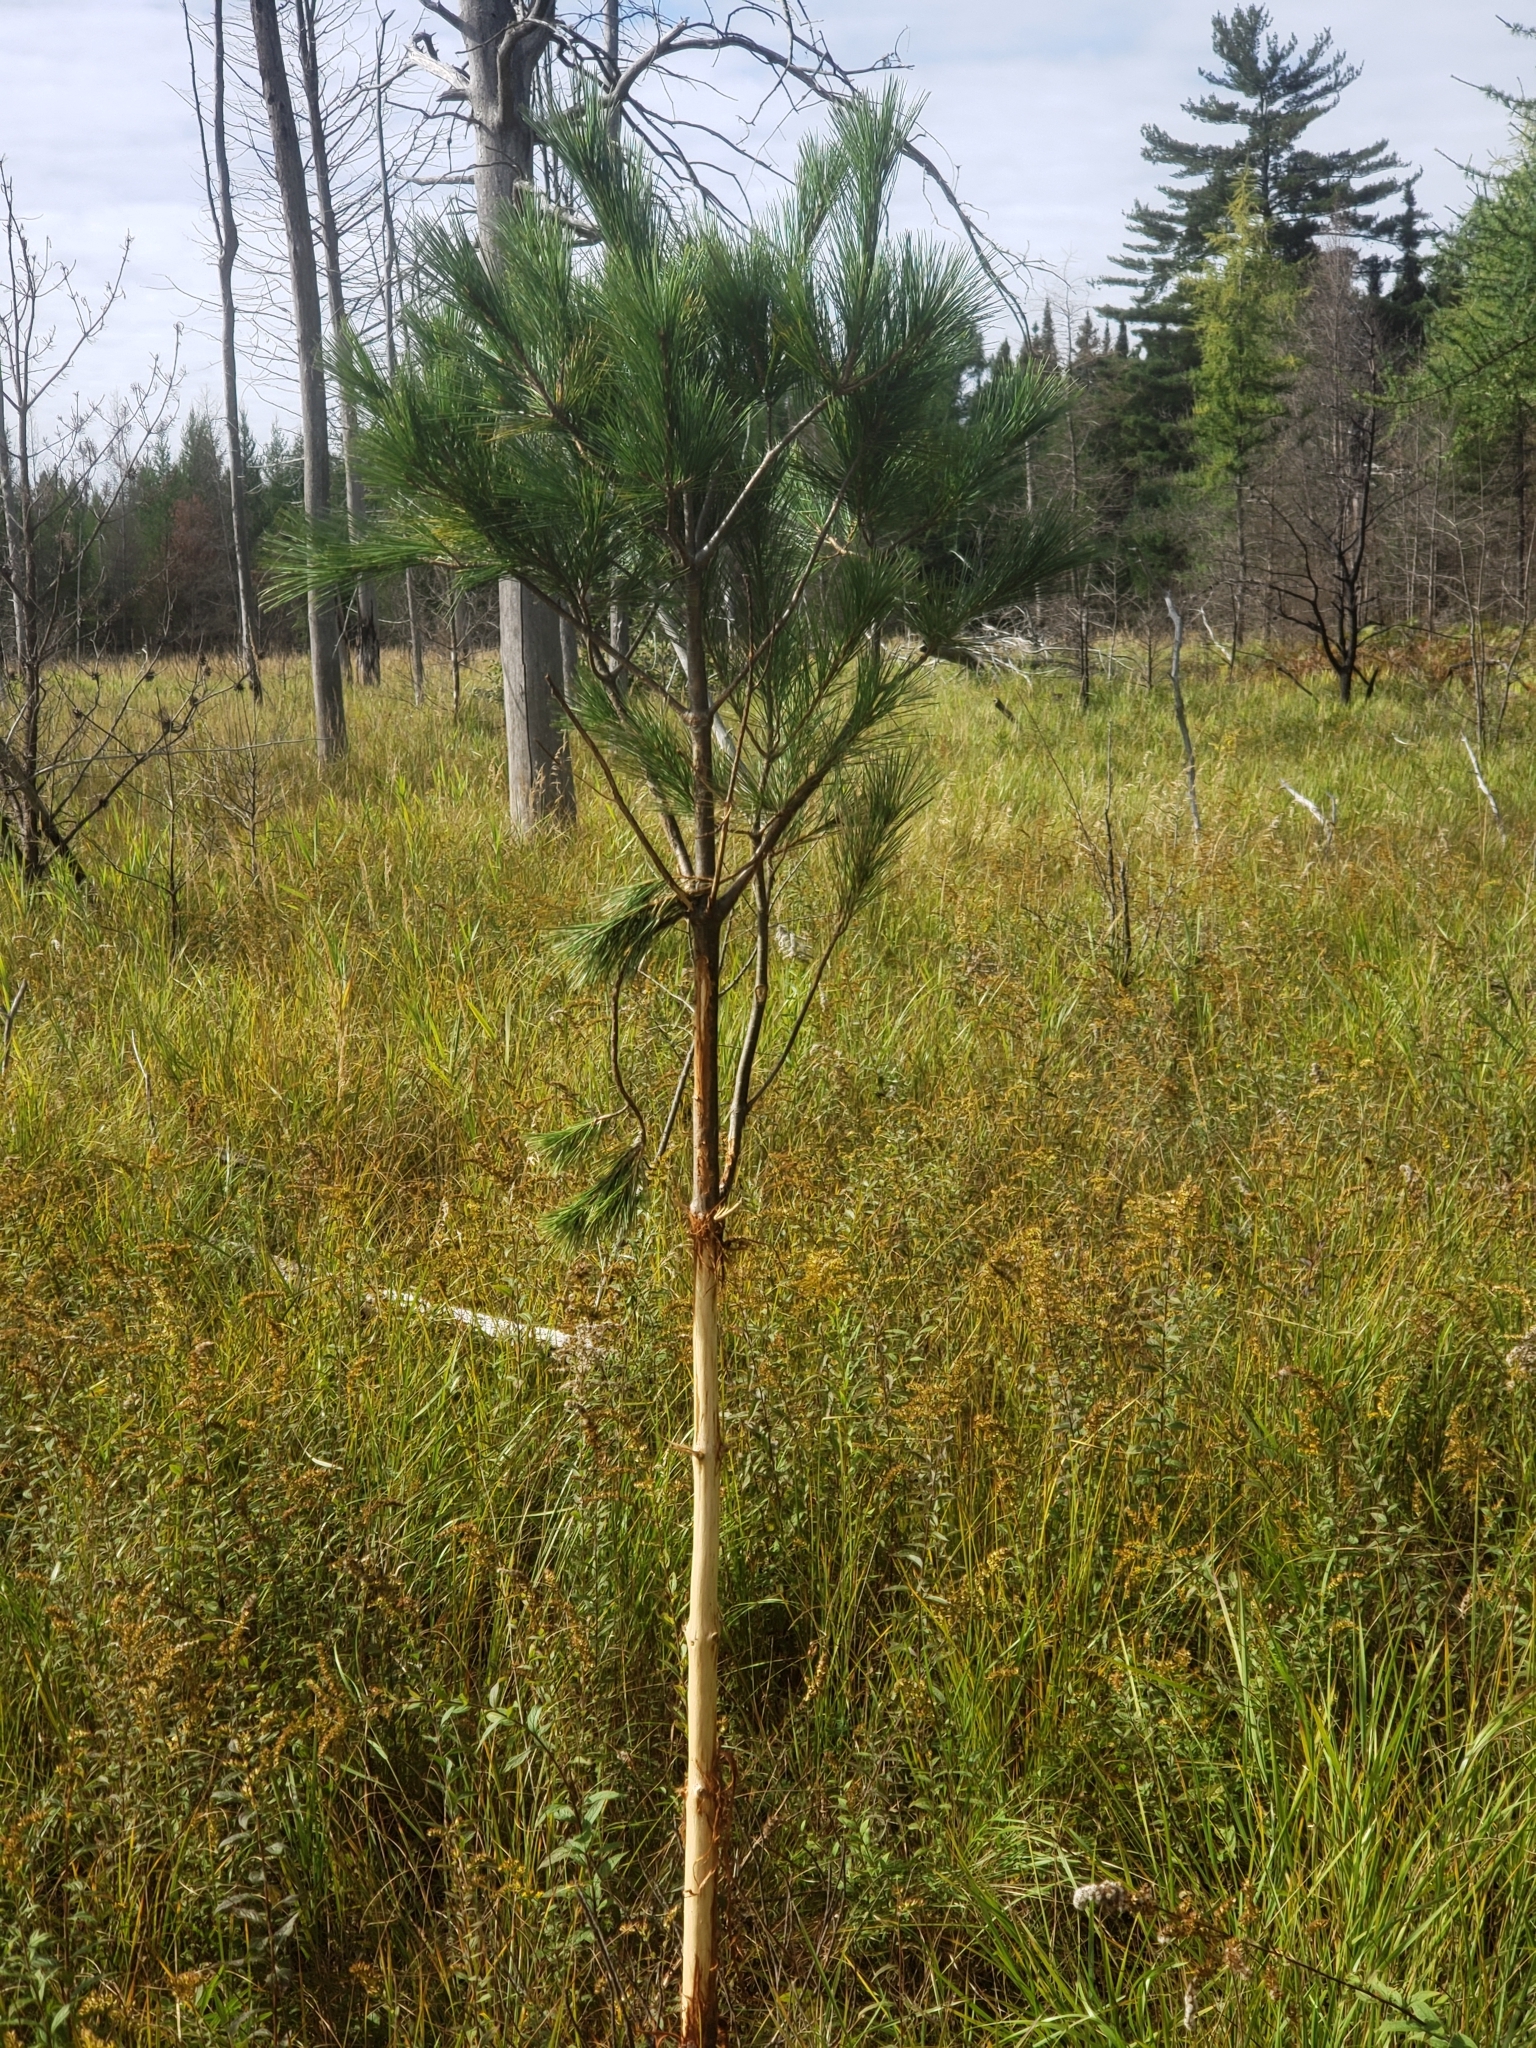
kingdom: Plantae
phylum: Tracheophyta
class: Pinopsida
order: Pinales
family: Pinaceae
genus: Pinus
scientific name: Pinus strobus
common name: Weymouth pine
